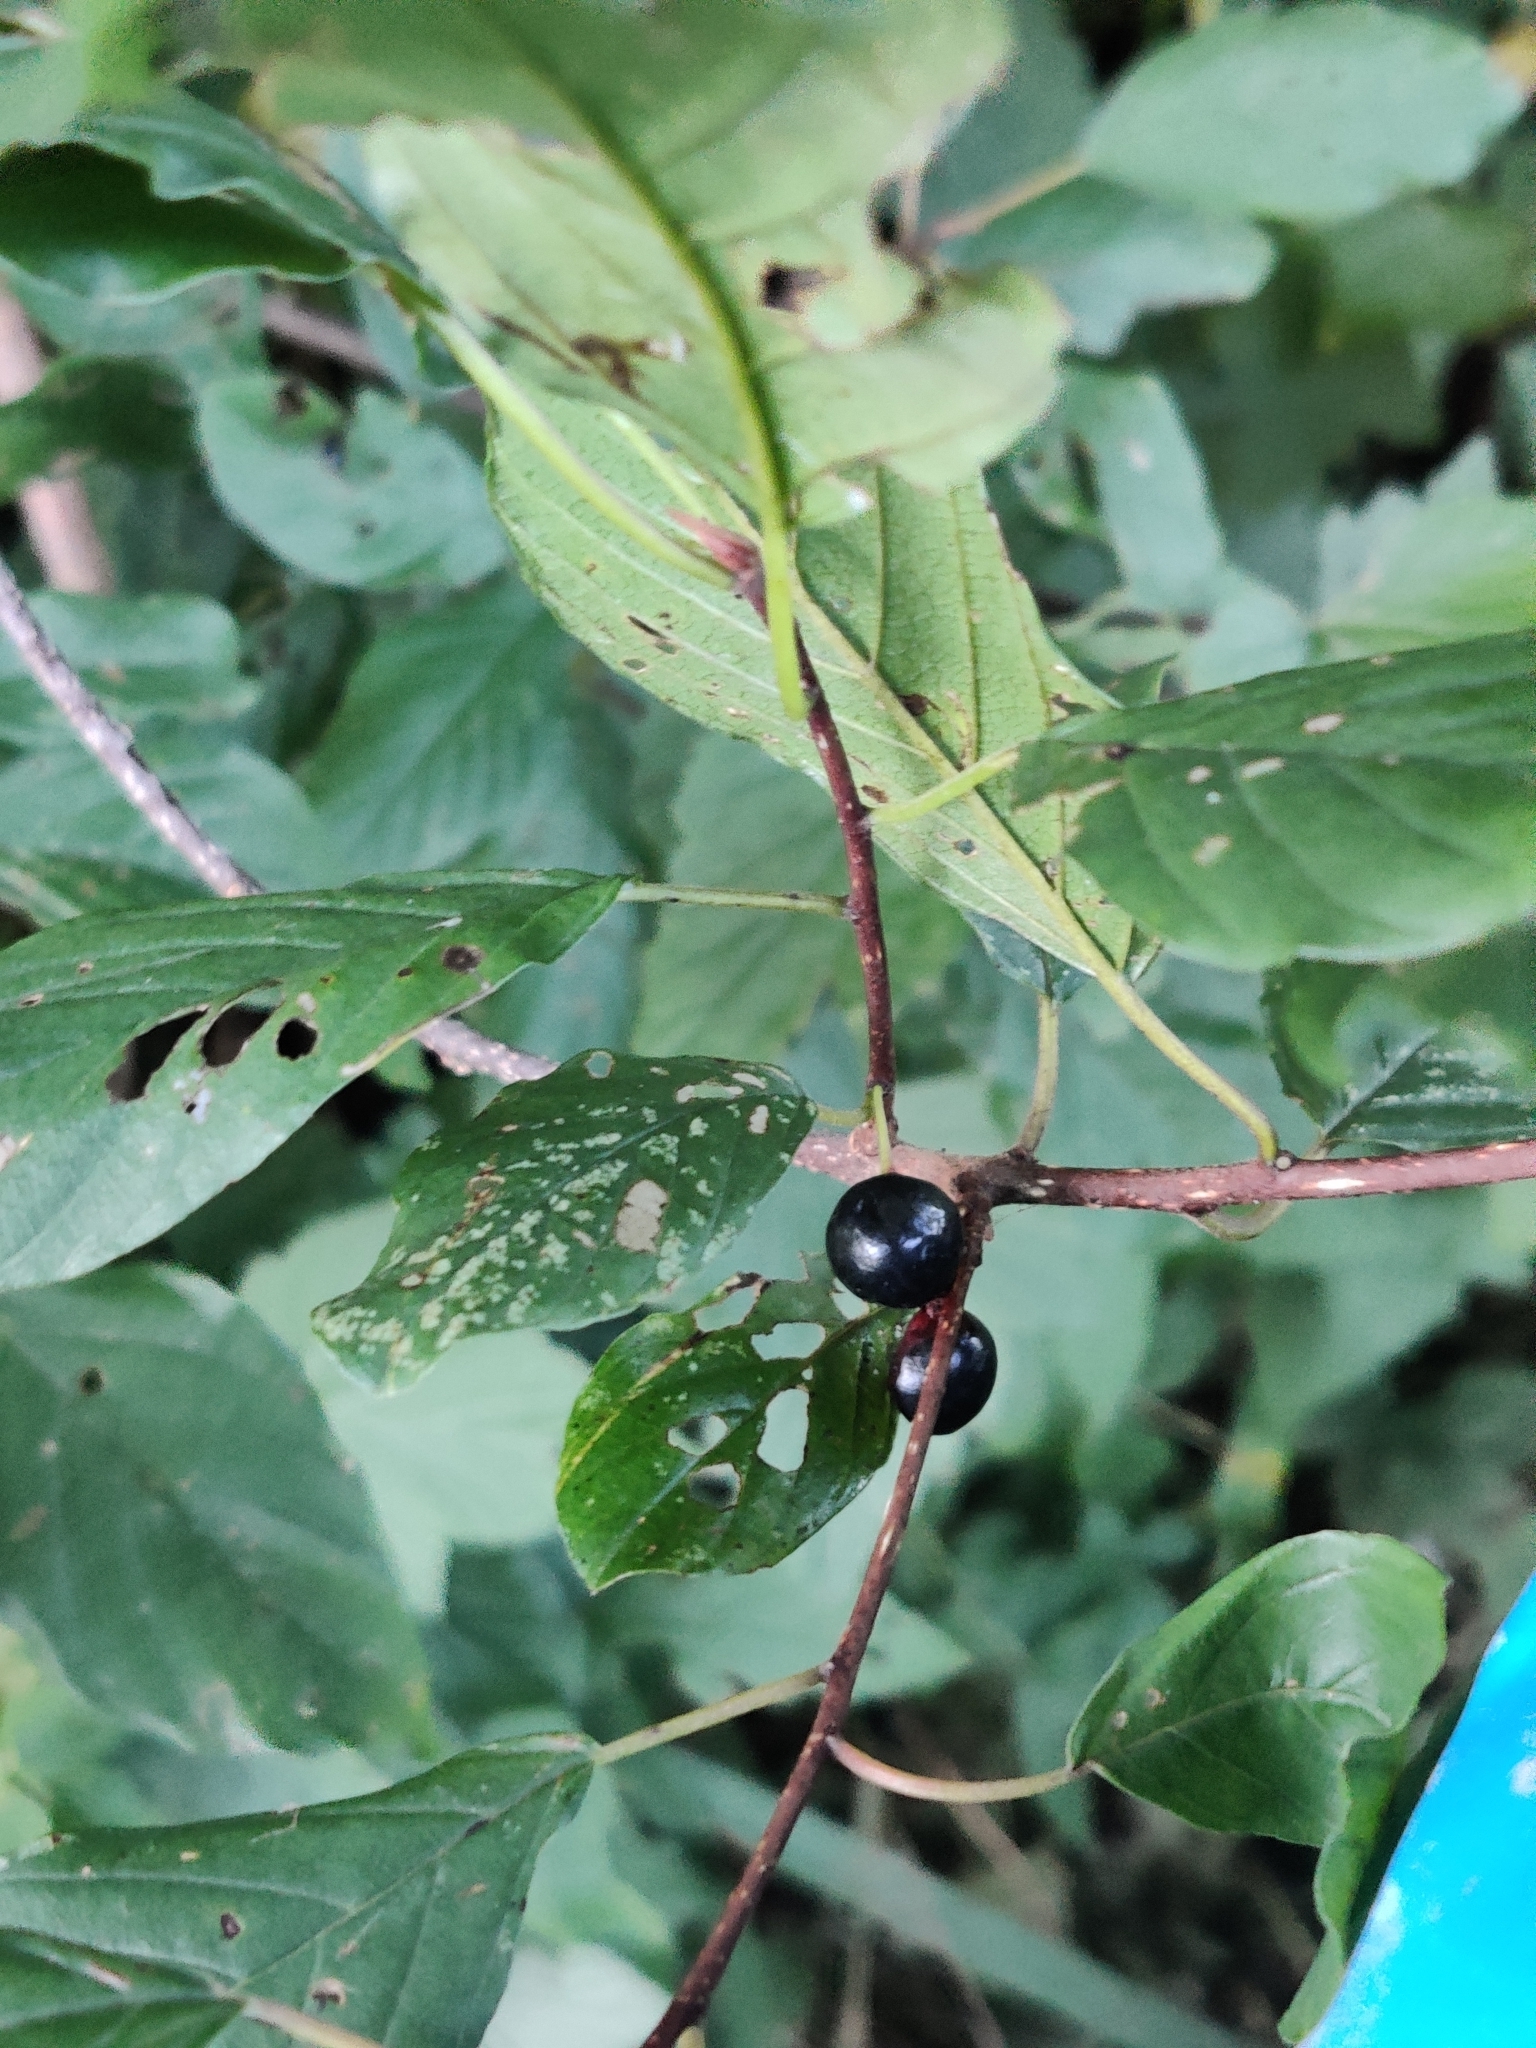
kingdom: Plantae
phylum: Tracheophyta
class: Magnoliopsida
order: Rosales
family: Rhamnaceae
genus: Frangula
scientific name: Frangula alnus
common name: Alder buckthorn
